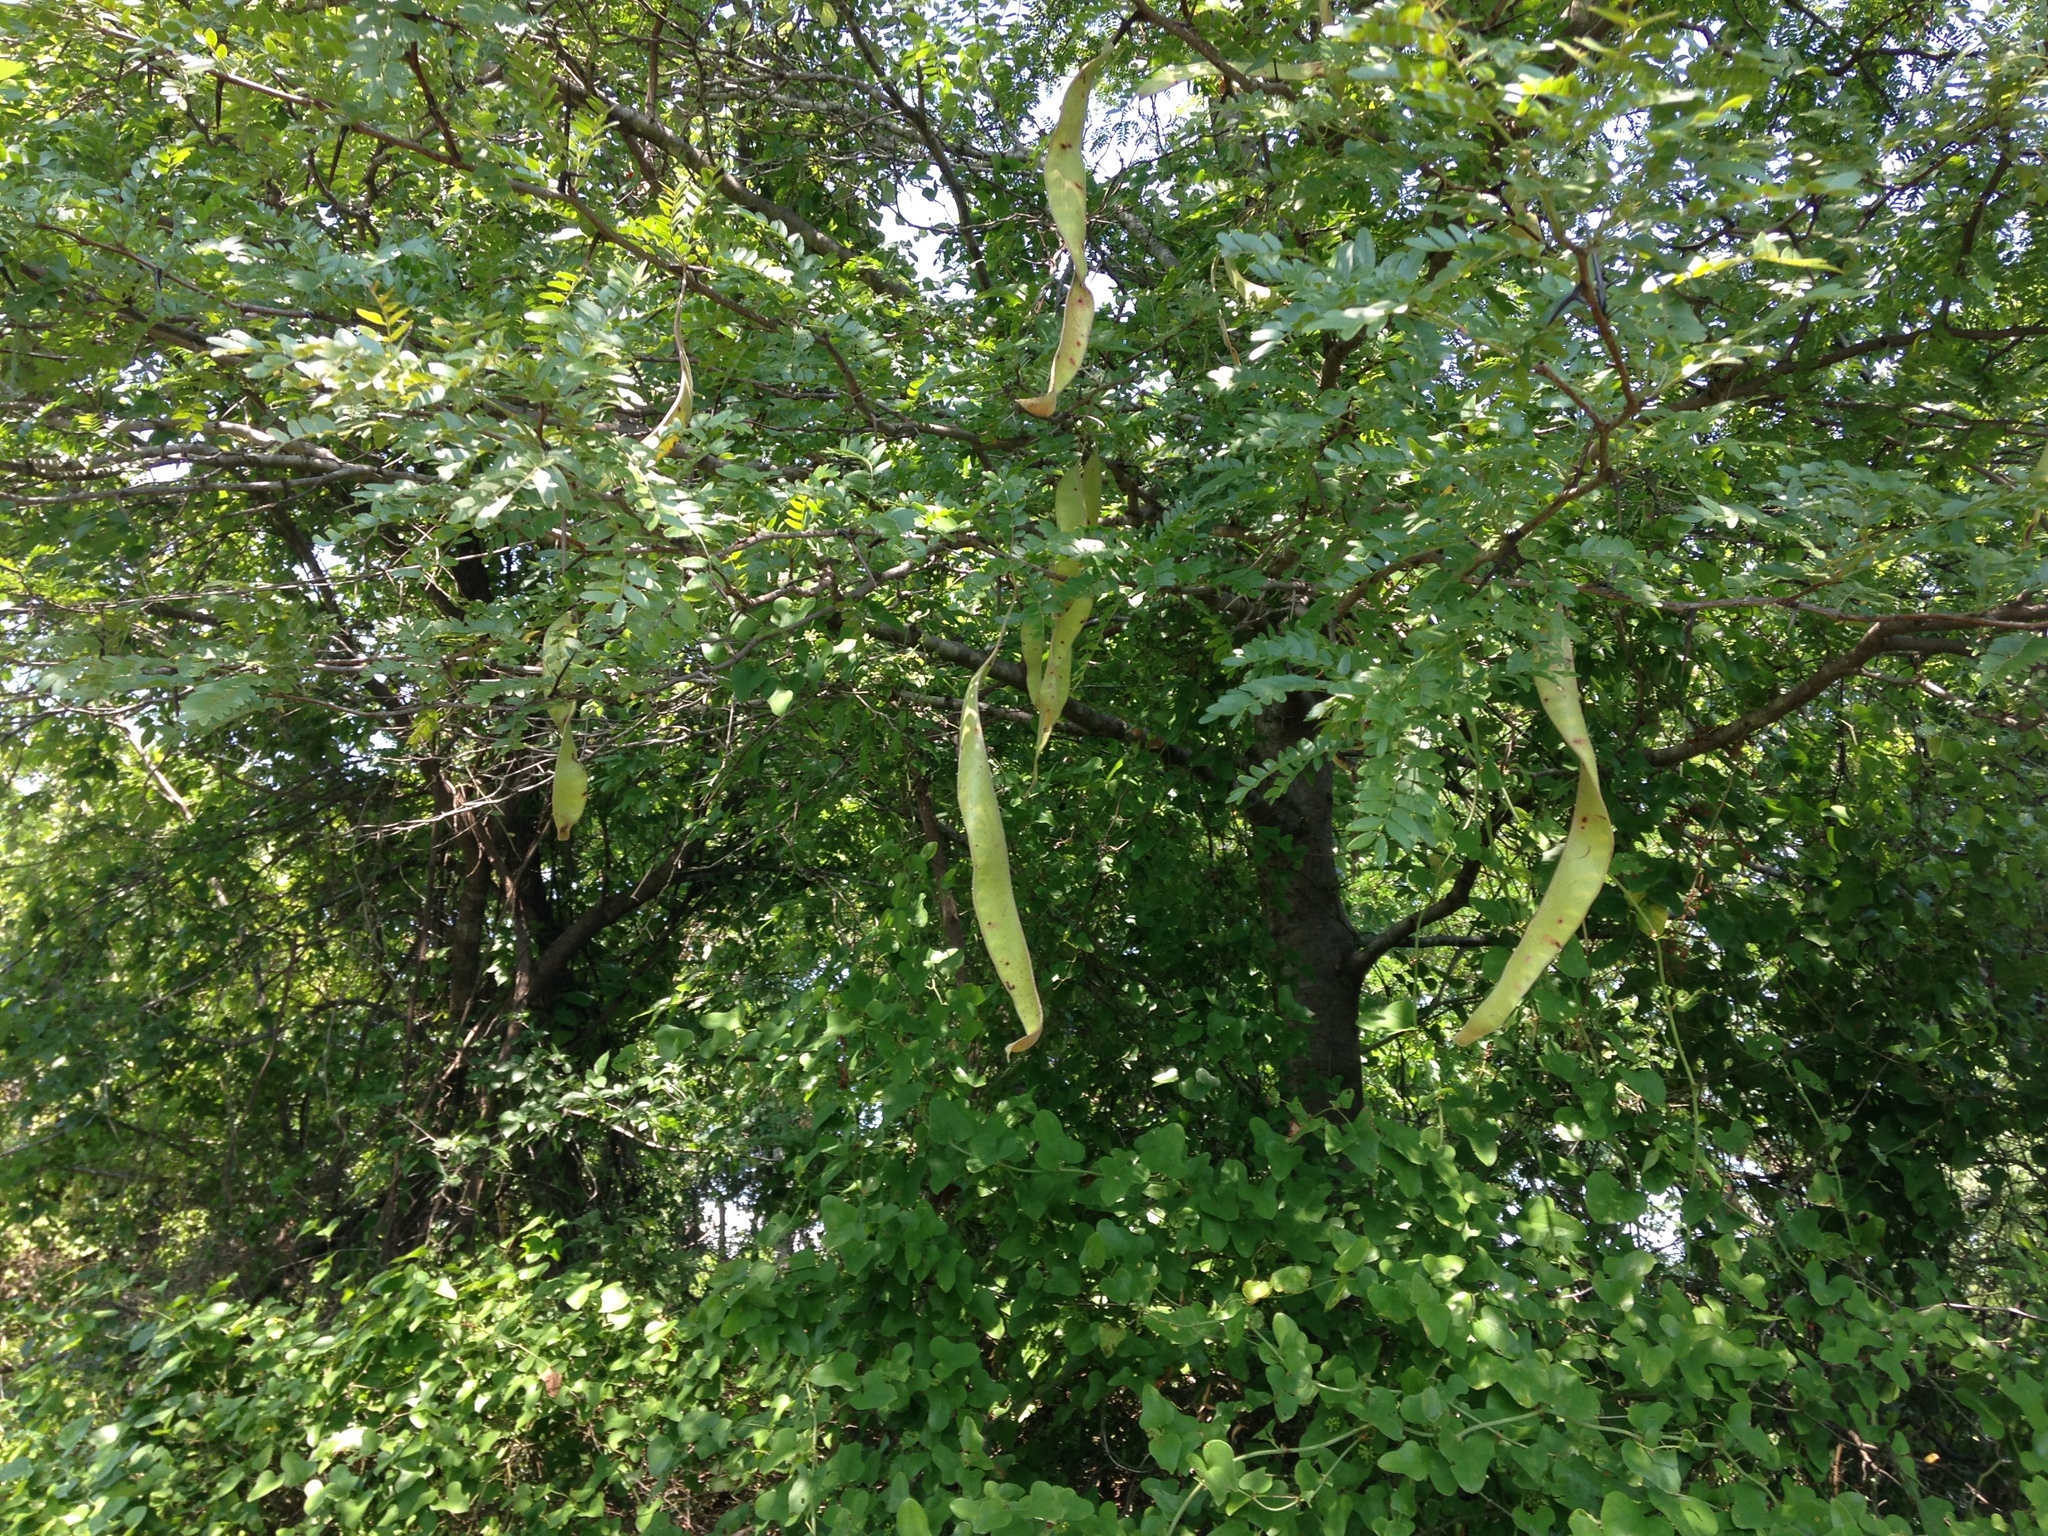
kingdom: Plantae
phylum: Tracheophyta
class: Magnoliopsida
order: Fabales
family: Fabaceae
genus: Gleditsia
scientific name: Gleditsia triacanthos
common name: Common honeylocust
